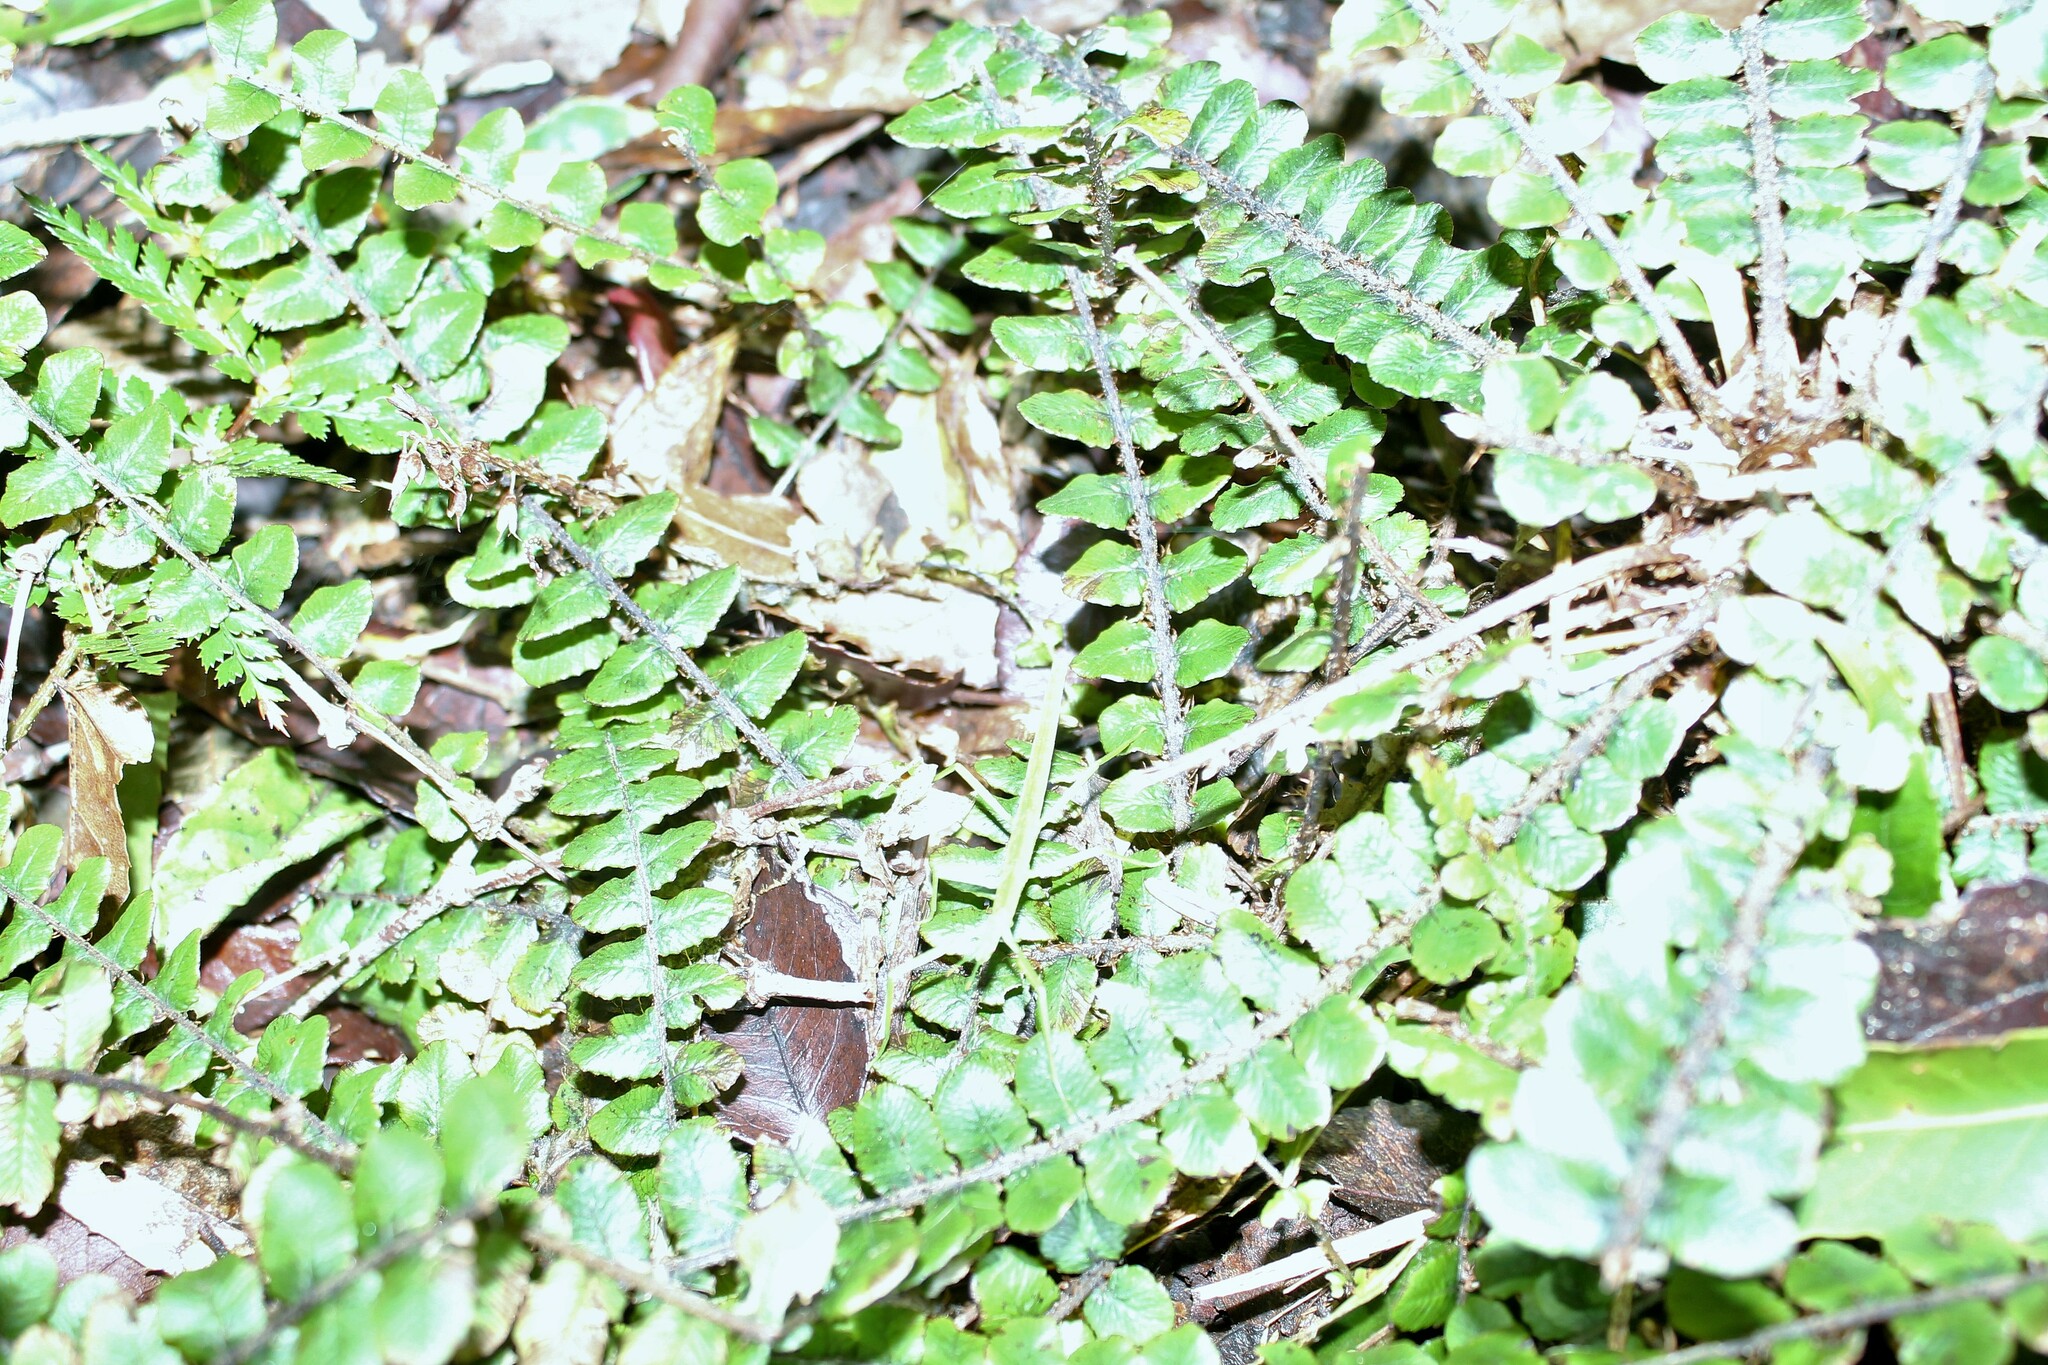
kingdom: Plantae
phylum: Tracheophyta
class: Polypodiopsida
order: Polypodiales
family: Blechnaceae
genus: Cranfillia
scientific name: Cranfillia fluviatilis
